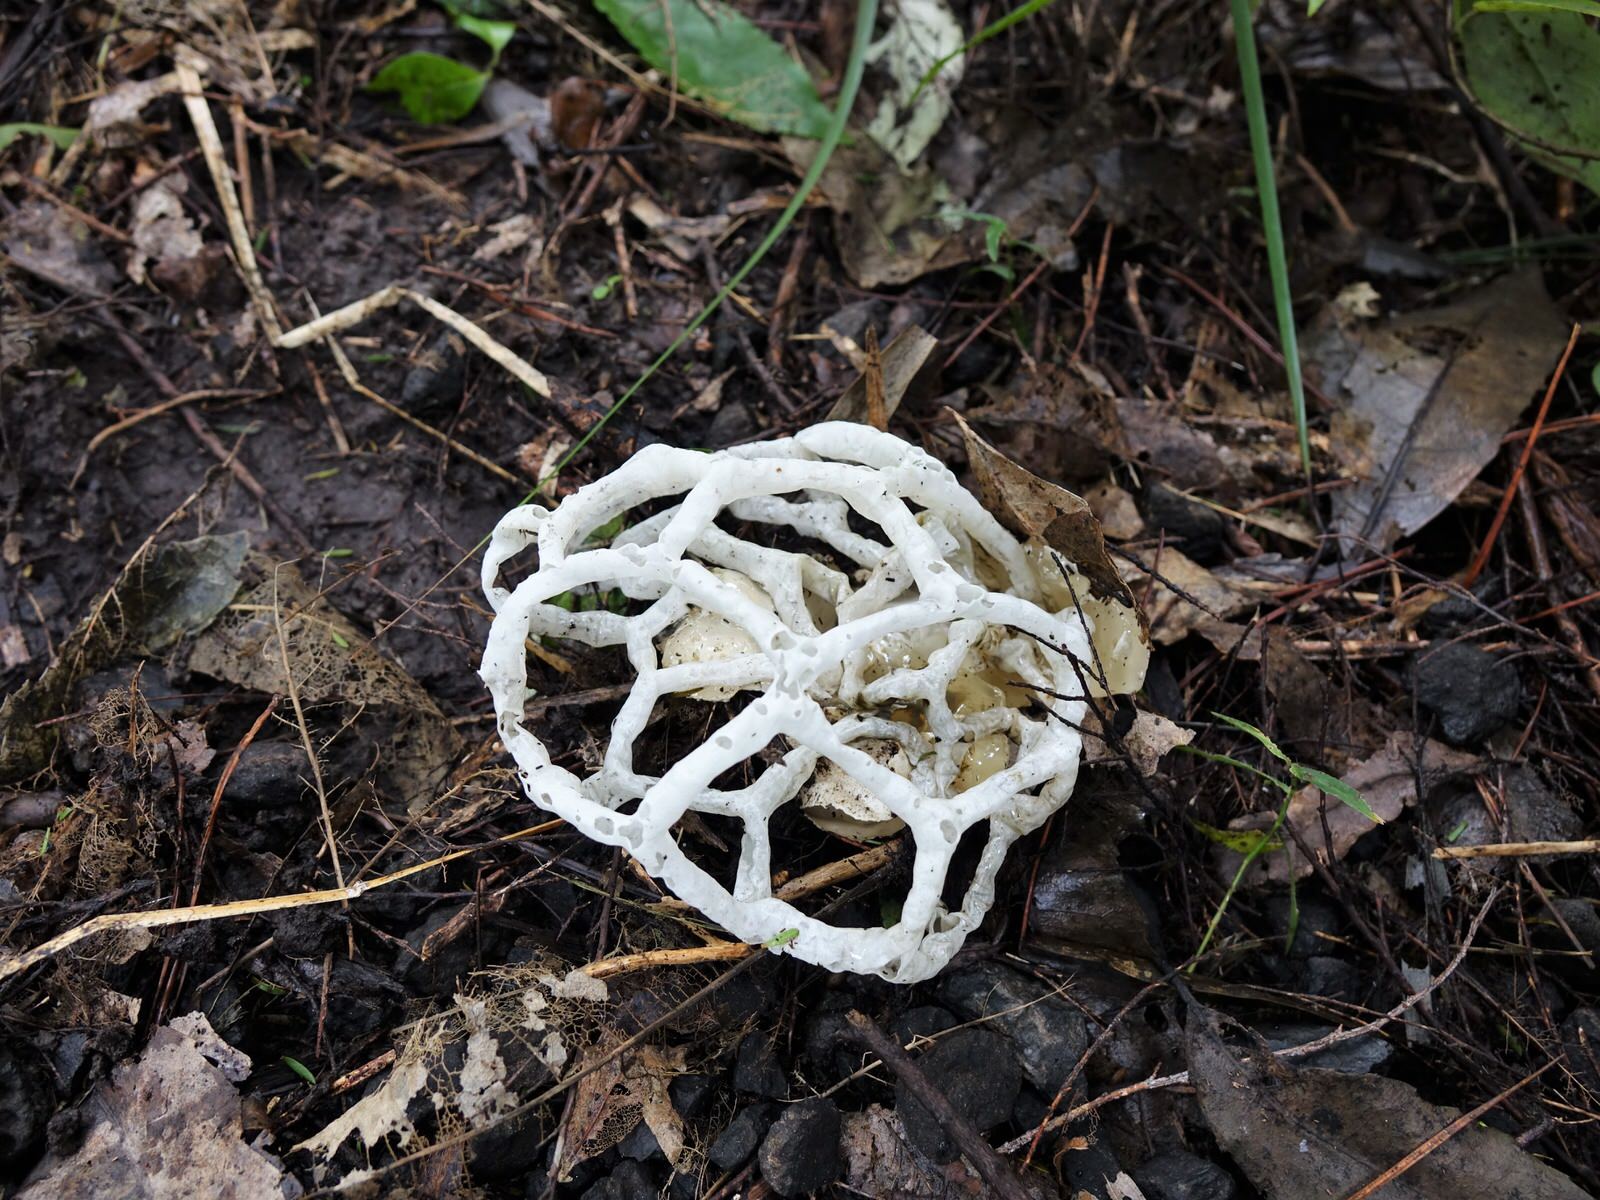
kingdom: Fungi
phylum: Basidiomycota
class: Agaricomycetes
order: Phallales
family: Phallaceae
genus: Ileodictyon
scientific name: Ileodictyon cibarium
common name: Basket fungus
